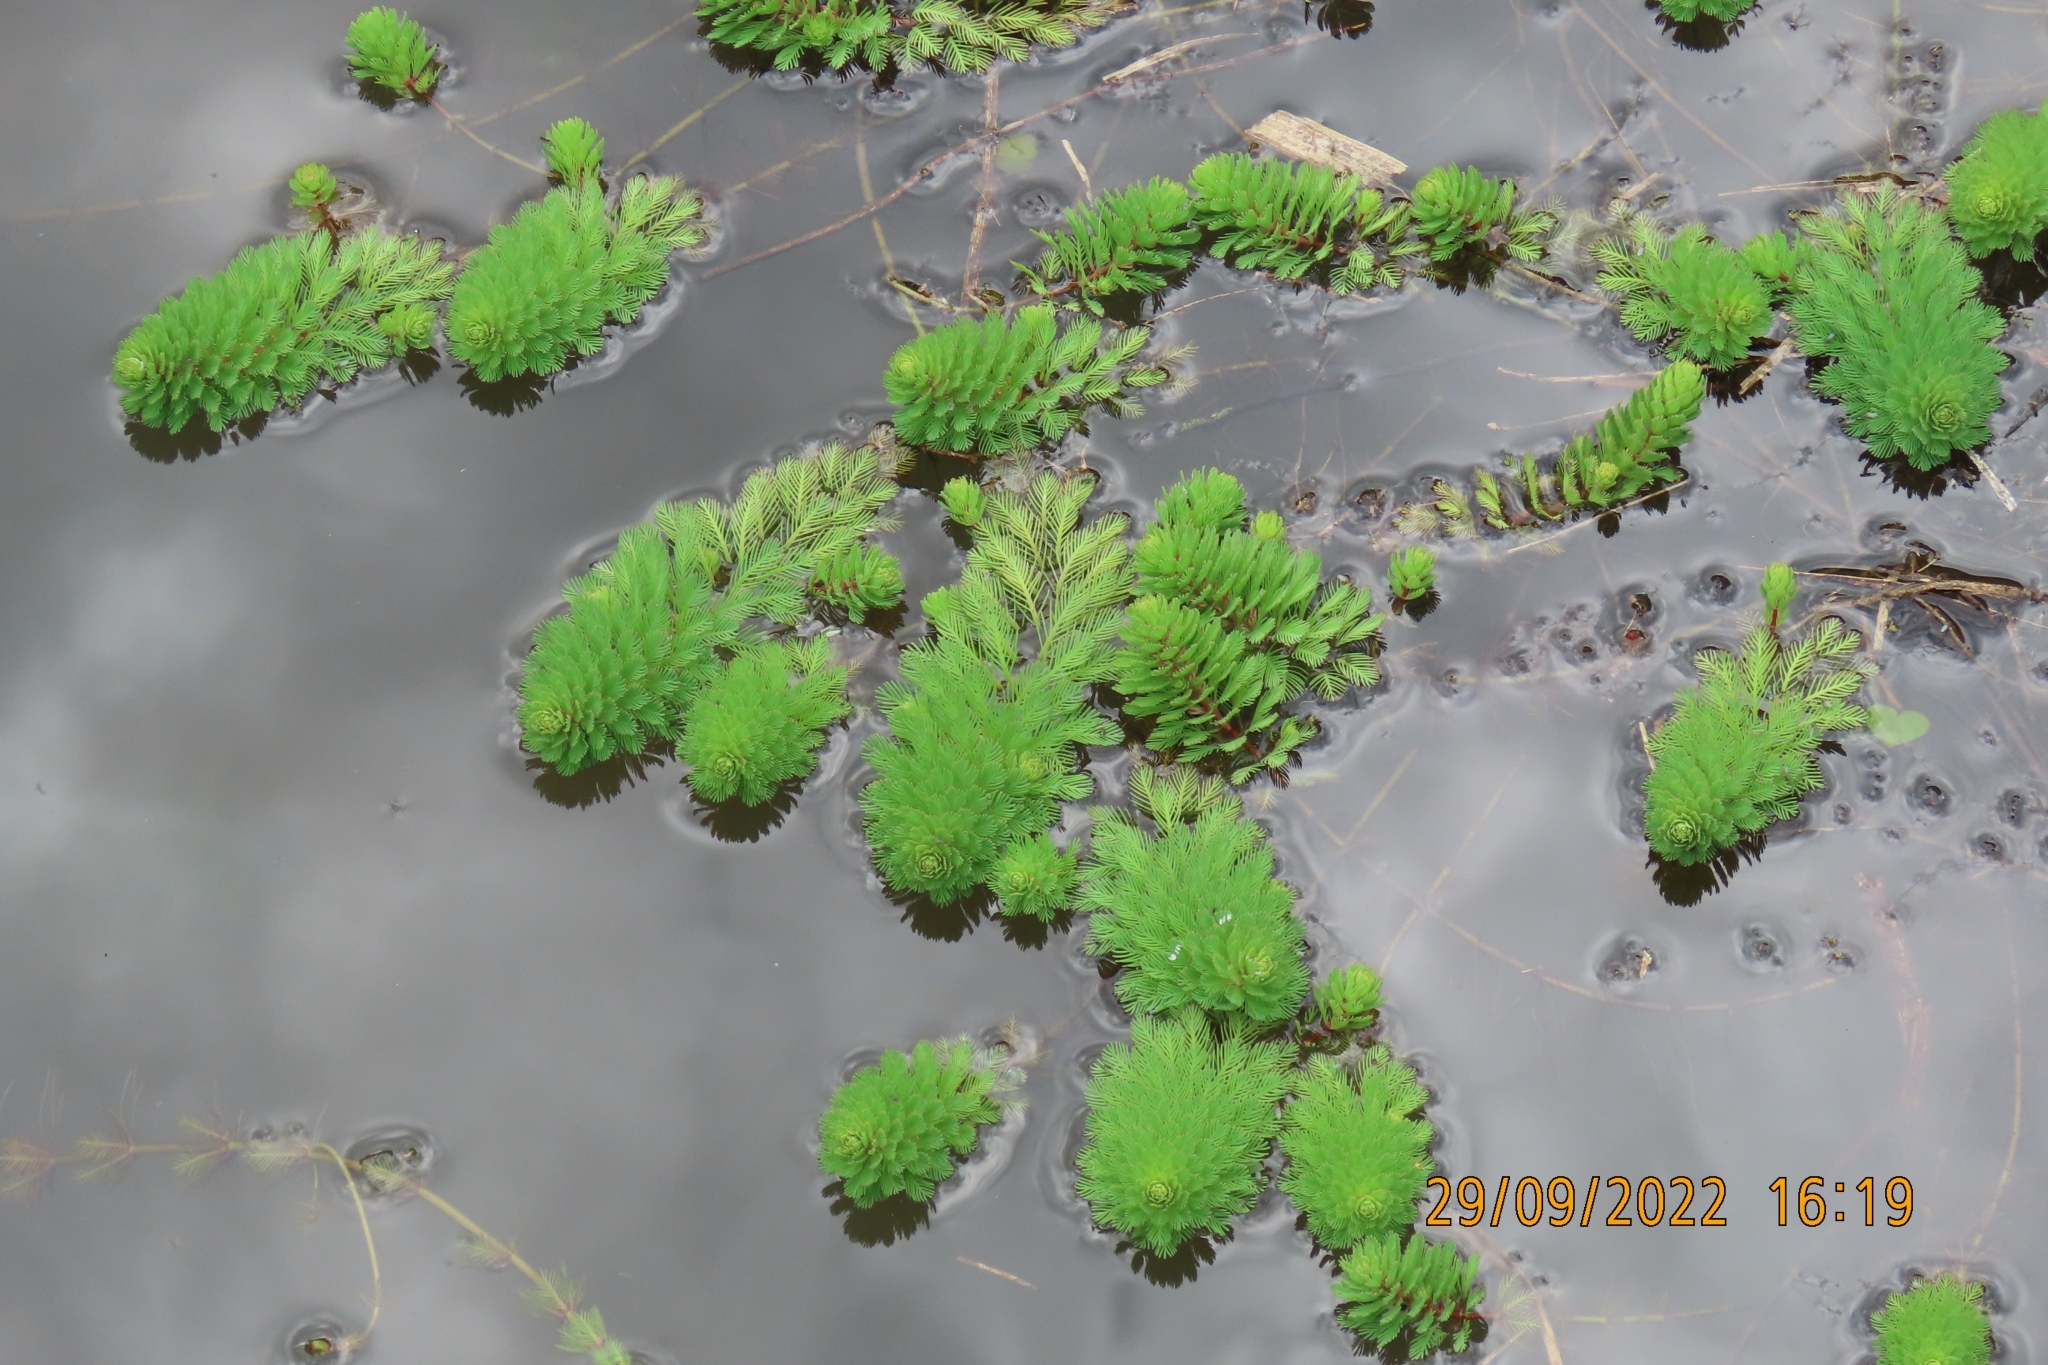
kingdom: Plantae
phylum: Tracheophyta
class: Magnoliopsida
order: Saxifragales
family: Haloragaceae
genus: Myriophyllum
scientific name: Myriophyllum aquaticum
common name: Parrot's feather
